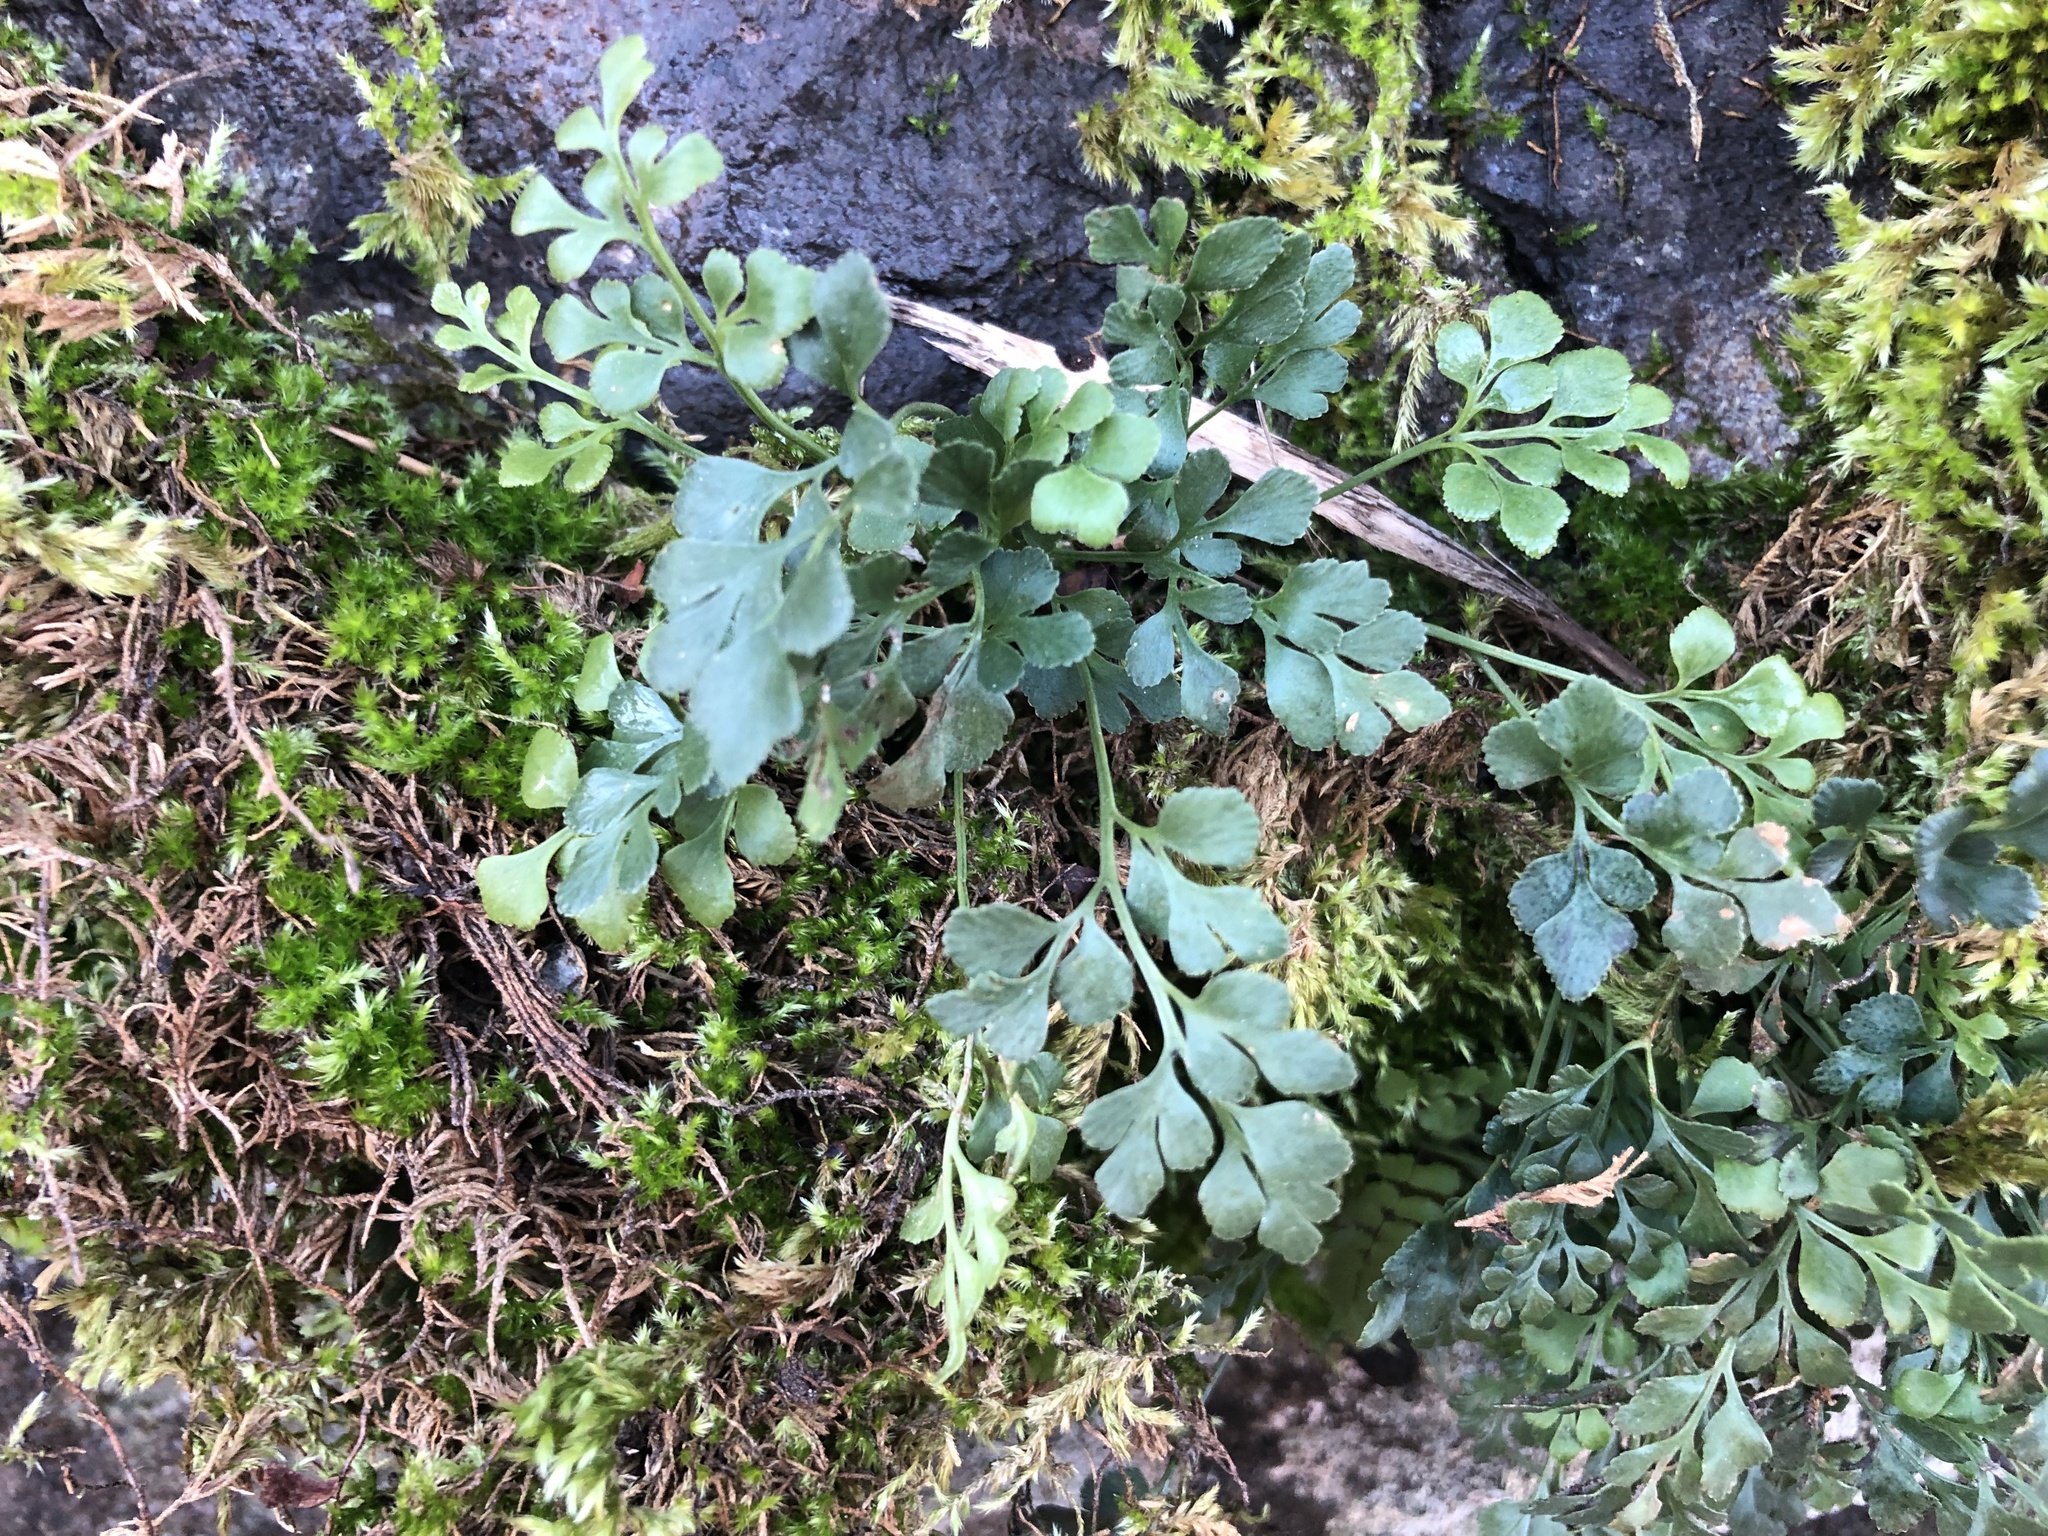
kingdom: Plantae
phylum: Tracheophyta
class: Polypodiopsida
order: Polypodiales
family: Aspleniaceae
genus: Asplenium
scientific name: Asplenium ruta-muraria
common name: Wall-rue
